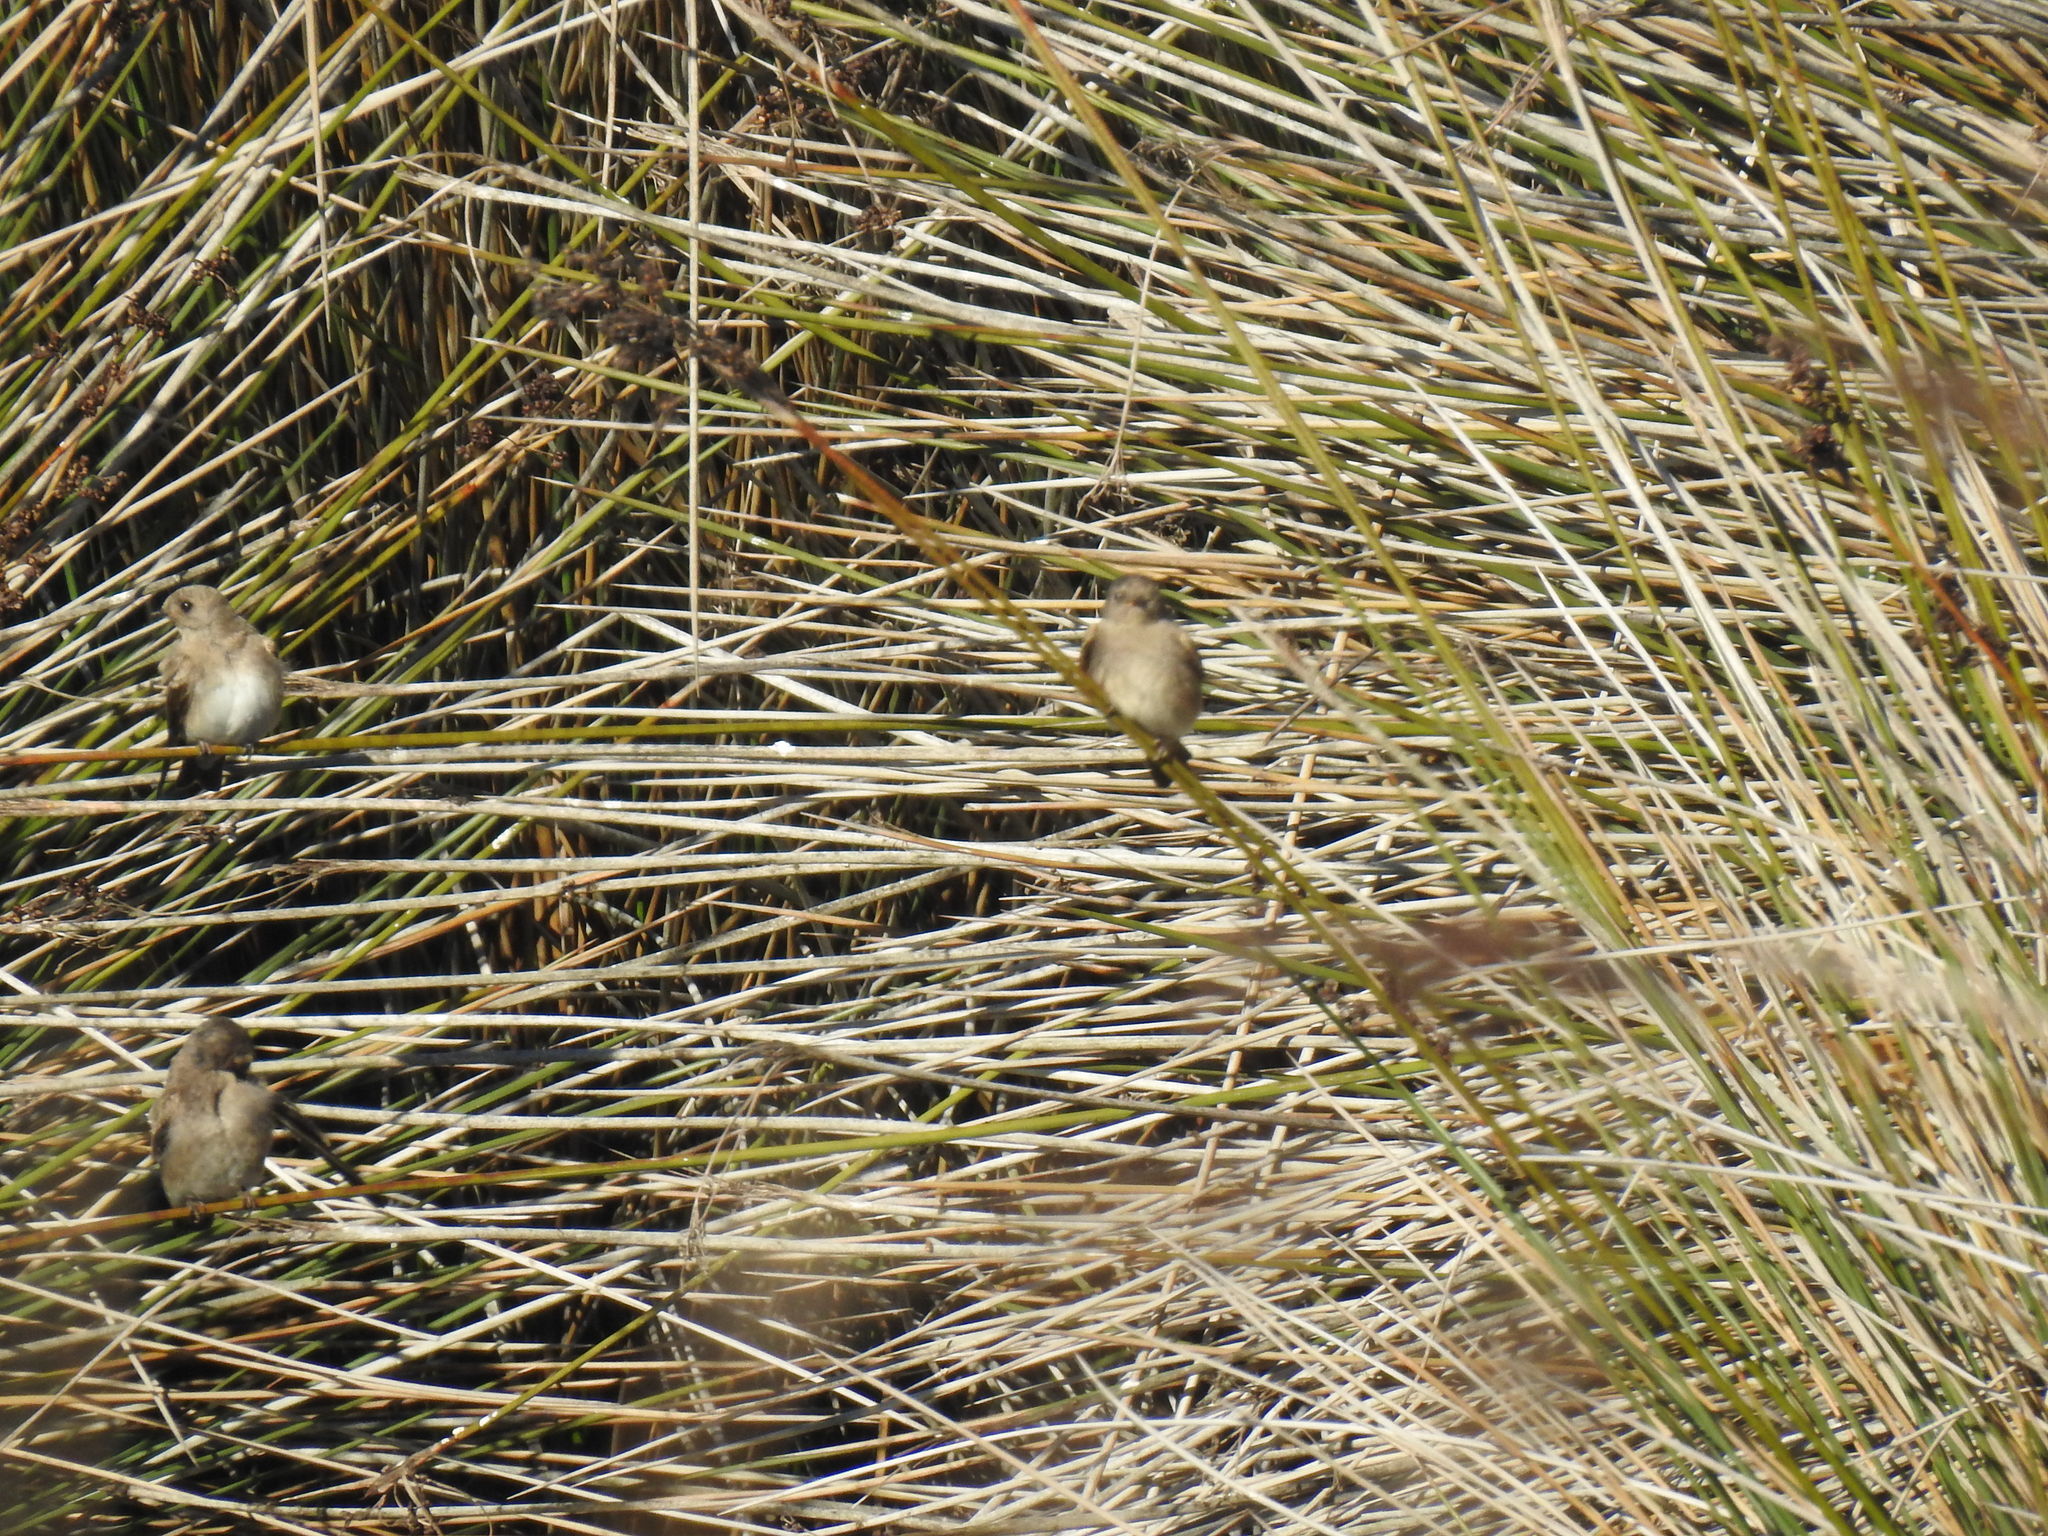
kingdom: Animalia
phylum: Chordata
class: Aves
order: Passeriformes
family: Hirundinidae
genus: Riparia
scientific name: Riparia paludicola
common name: Brown-throated martin
